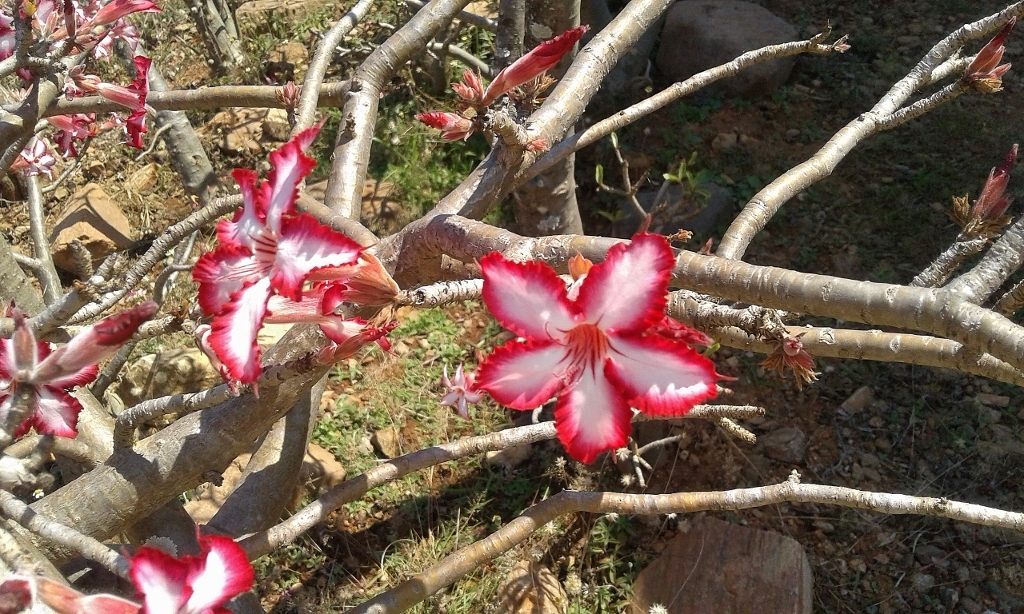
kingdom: Plantae
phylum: Tracheophyta
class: Magnoliopsida
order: Gentianales
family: Apocynaceae
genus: Adenium
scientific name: Adenium obesum
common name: Desert-rose
